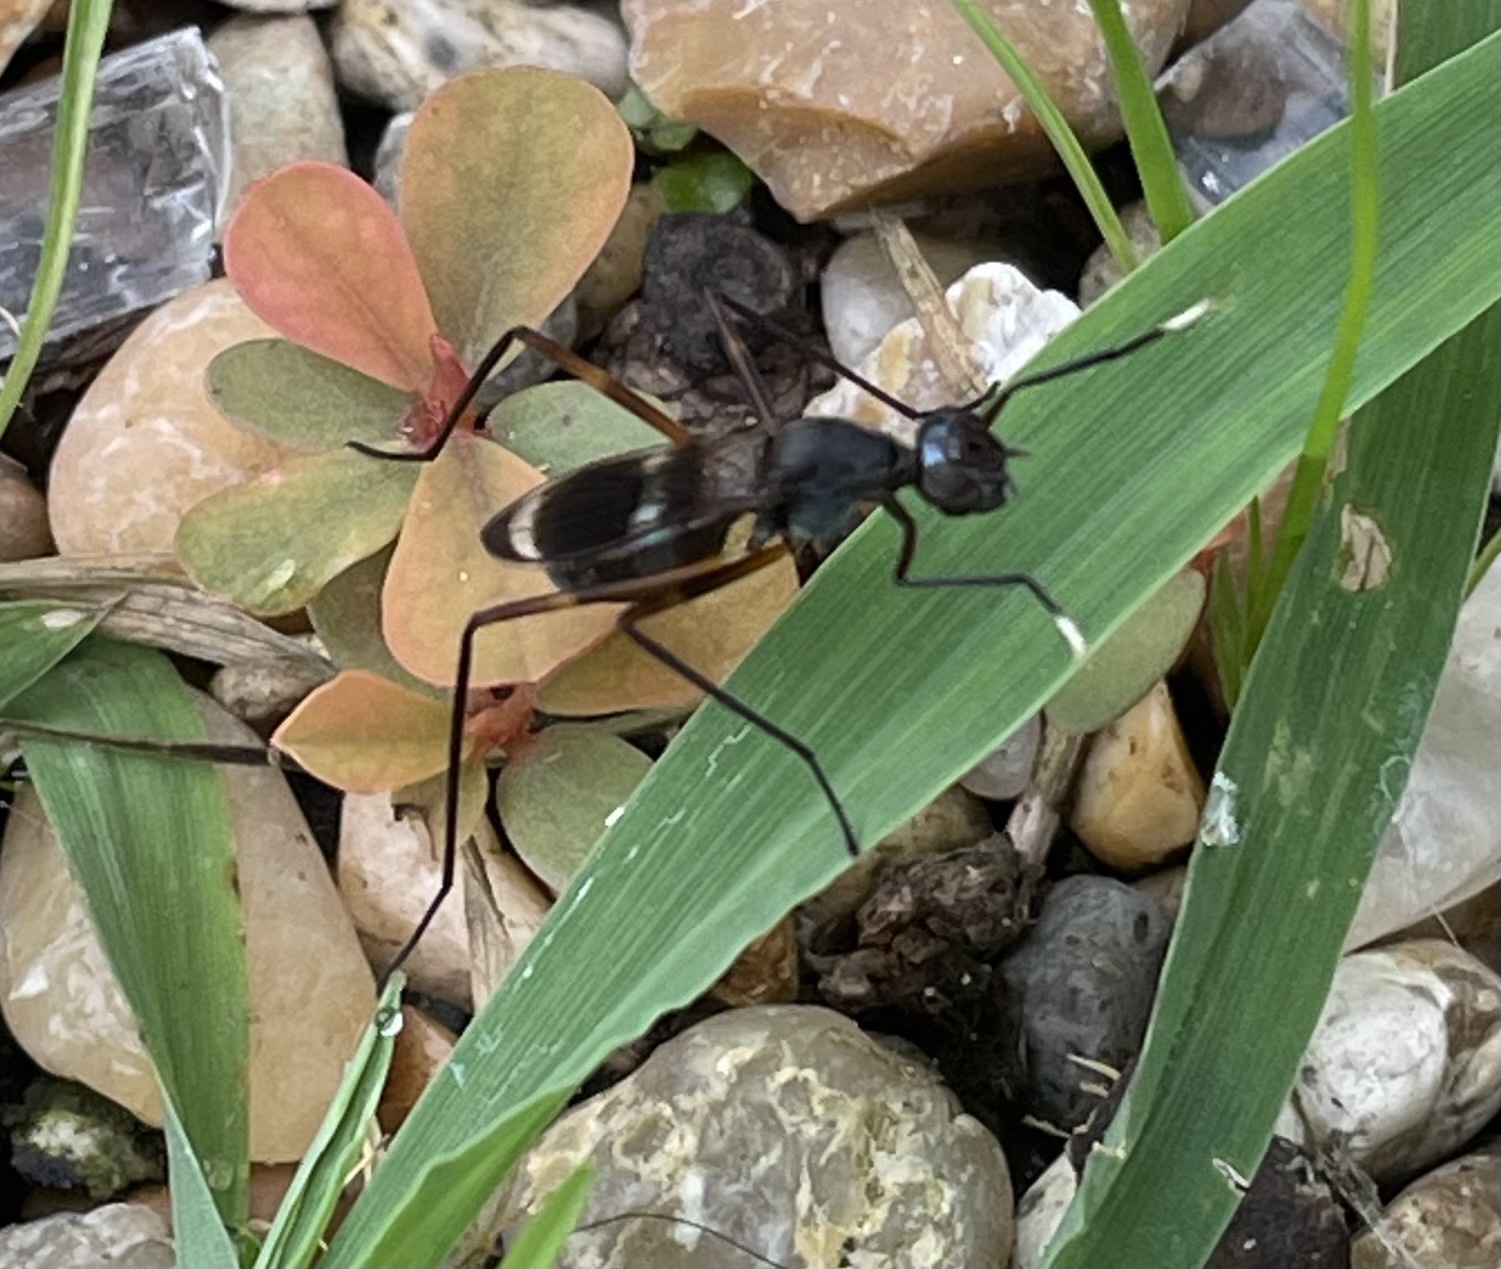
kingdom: Animalia
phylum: Arthropoda
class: Insecta
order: Diptera
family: Micropezidae
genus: Taeniaptera
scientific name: Taeniaptera trivittata
